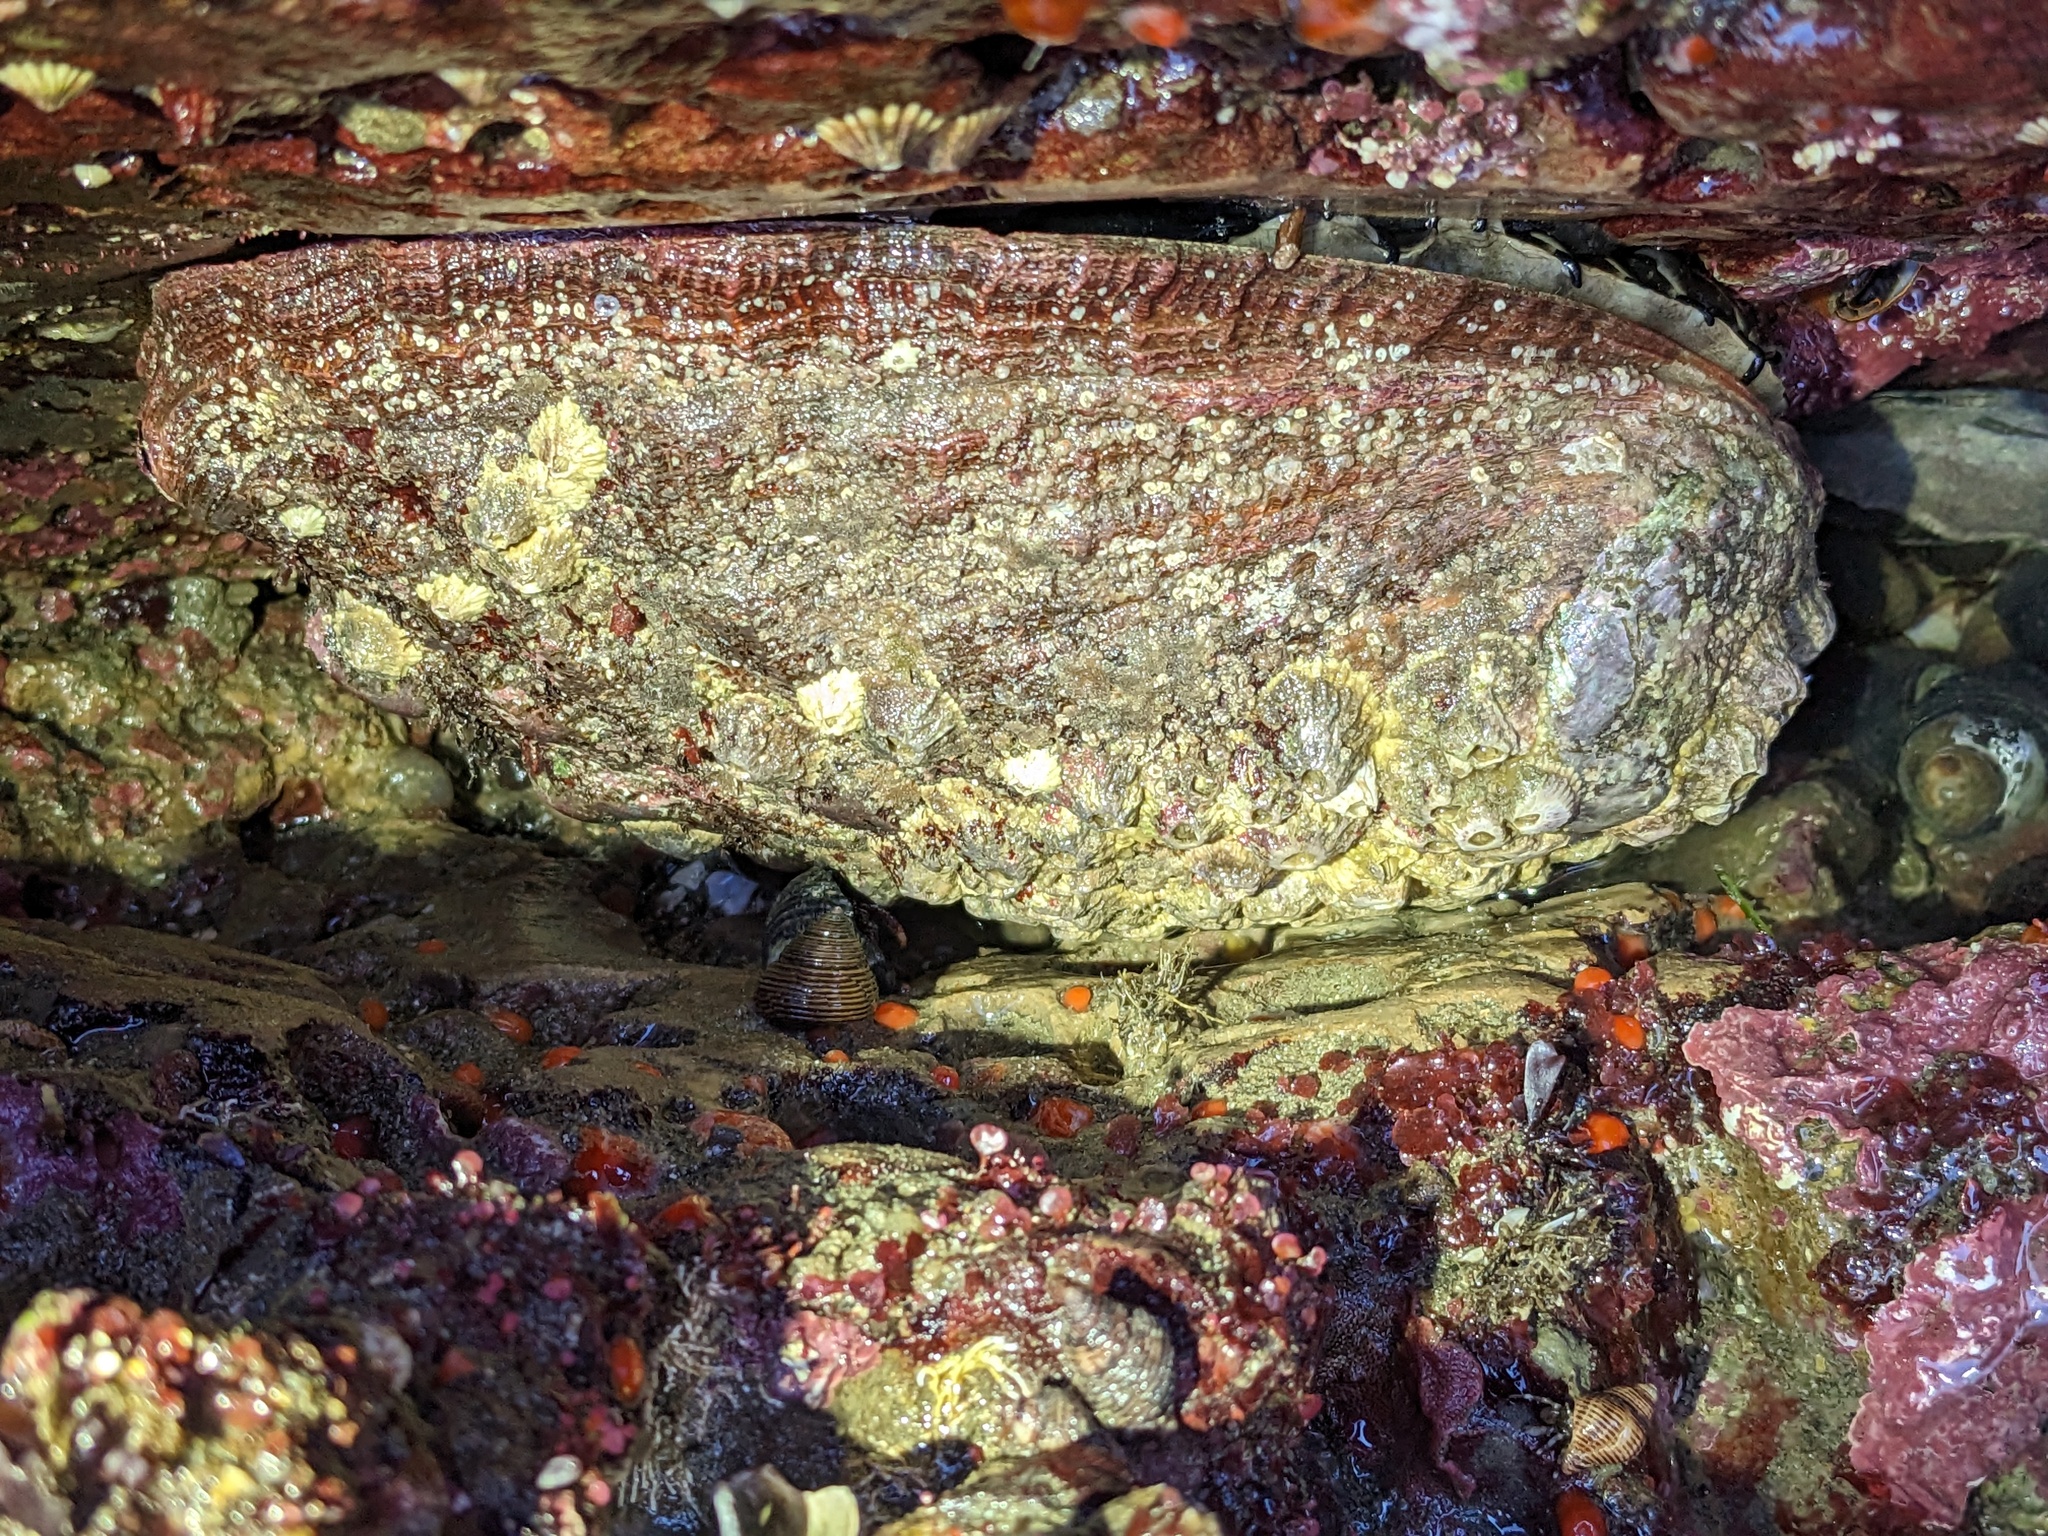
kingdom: Animalia
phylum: Mollusca
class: Gastropoda
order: Lepetellida
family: Haliotidae
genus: Haliotis
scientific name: Haliotis rufescens
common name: Red abalone
